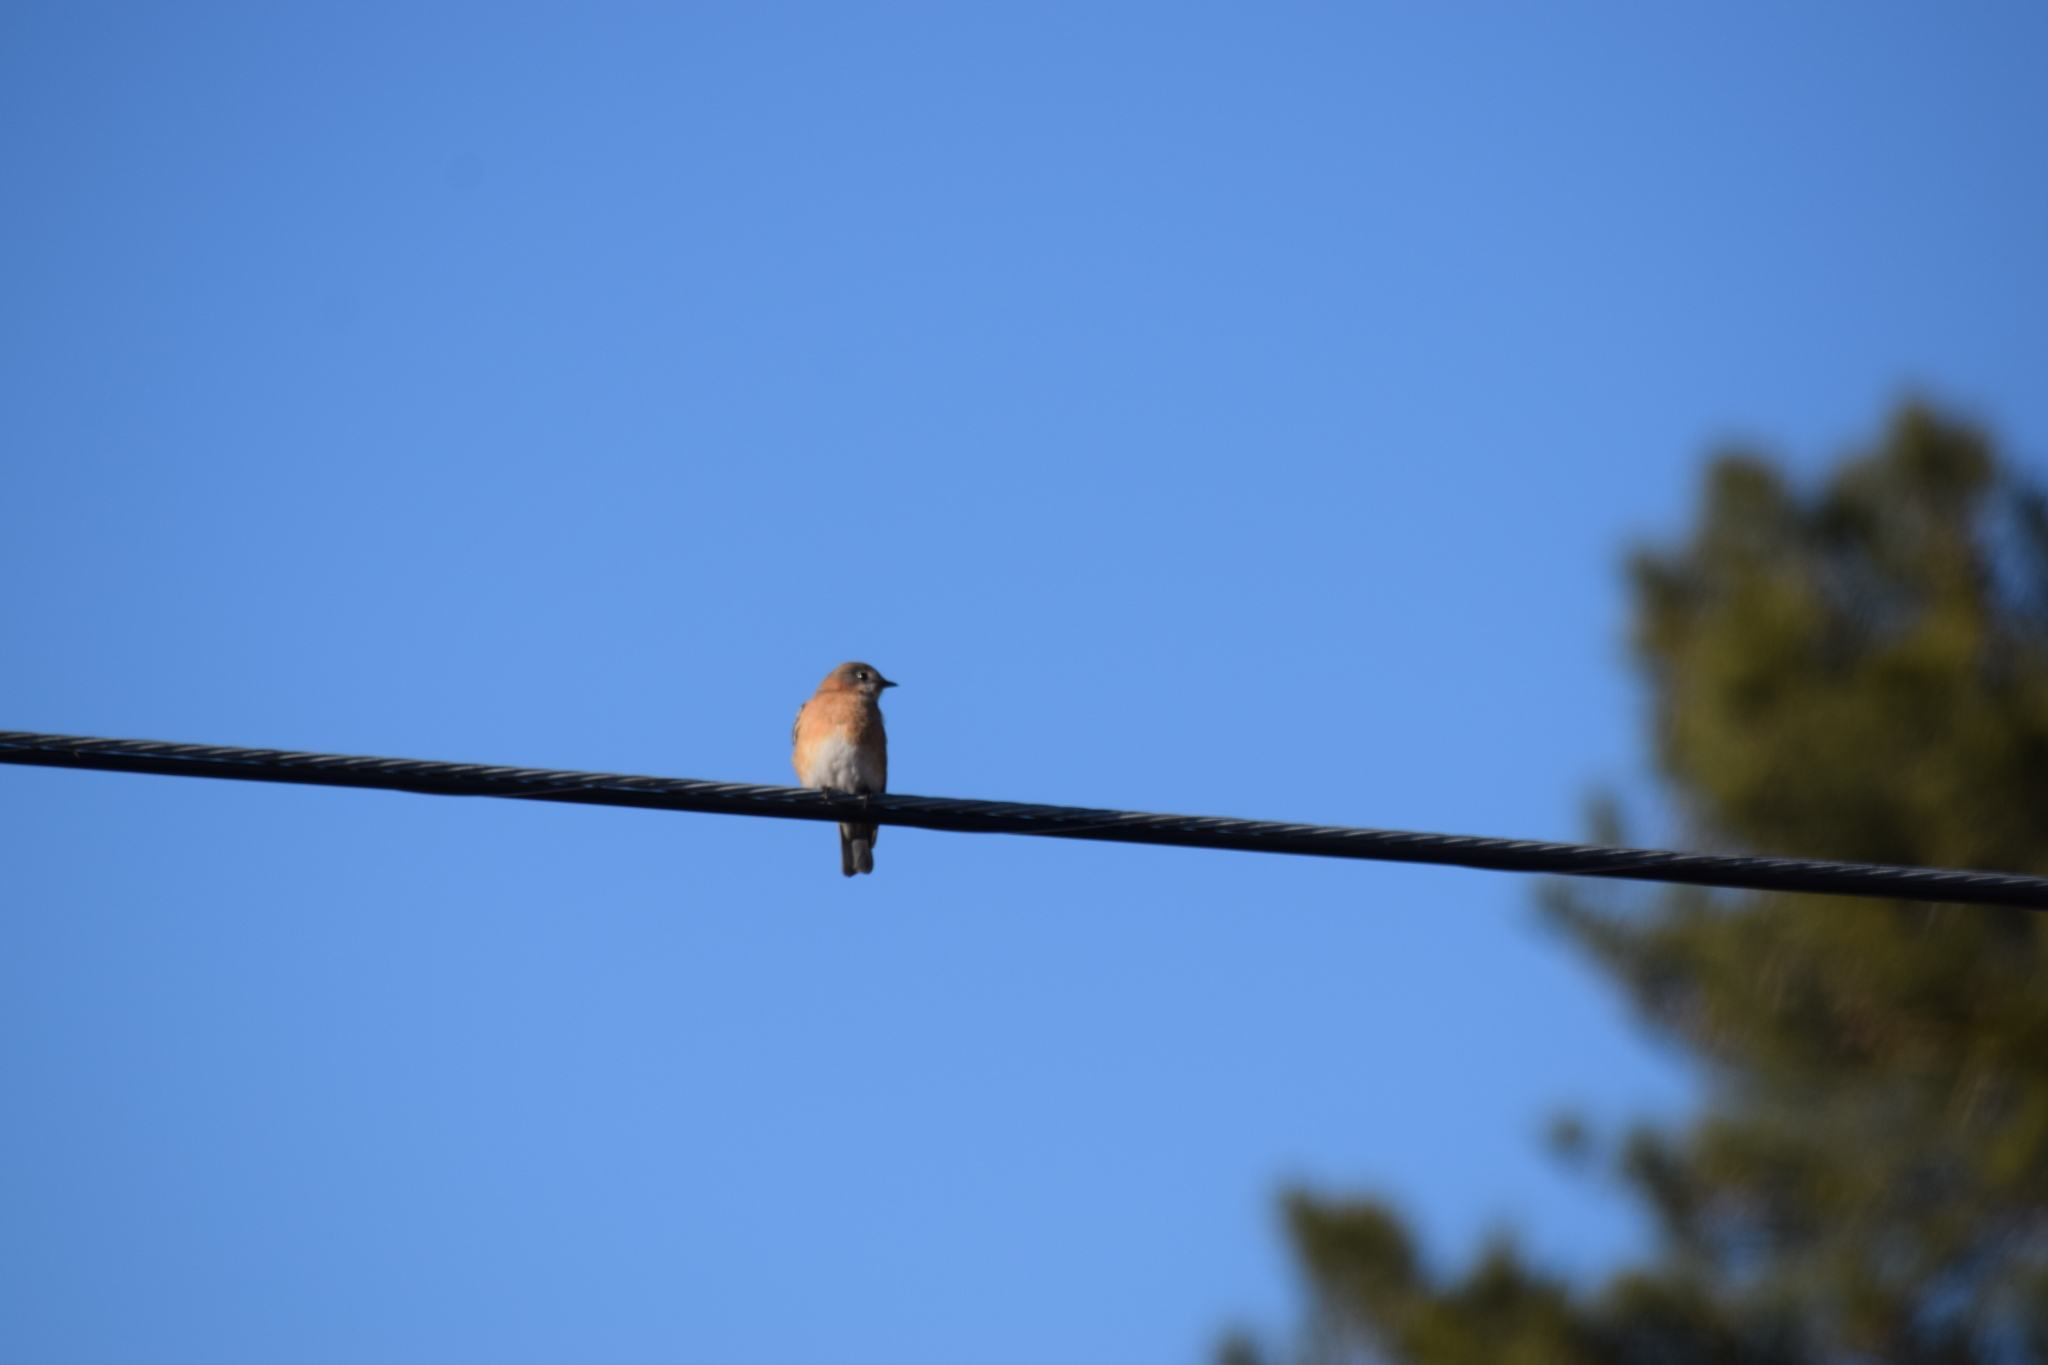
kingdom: Animalia
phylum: Chordata
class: Aves
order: Passeriformes
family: Turdidae
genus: Sialia
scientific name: Sialia sialis
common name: Eastern bluebird
